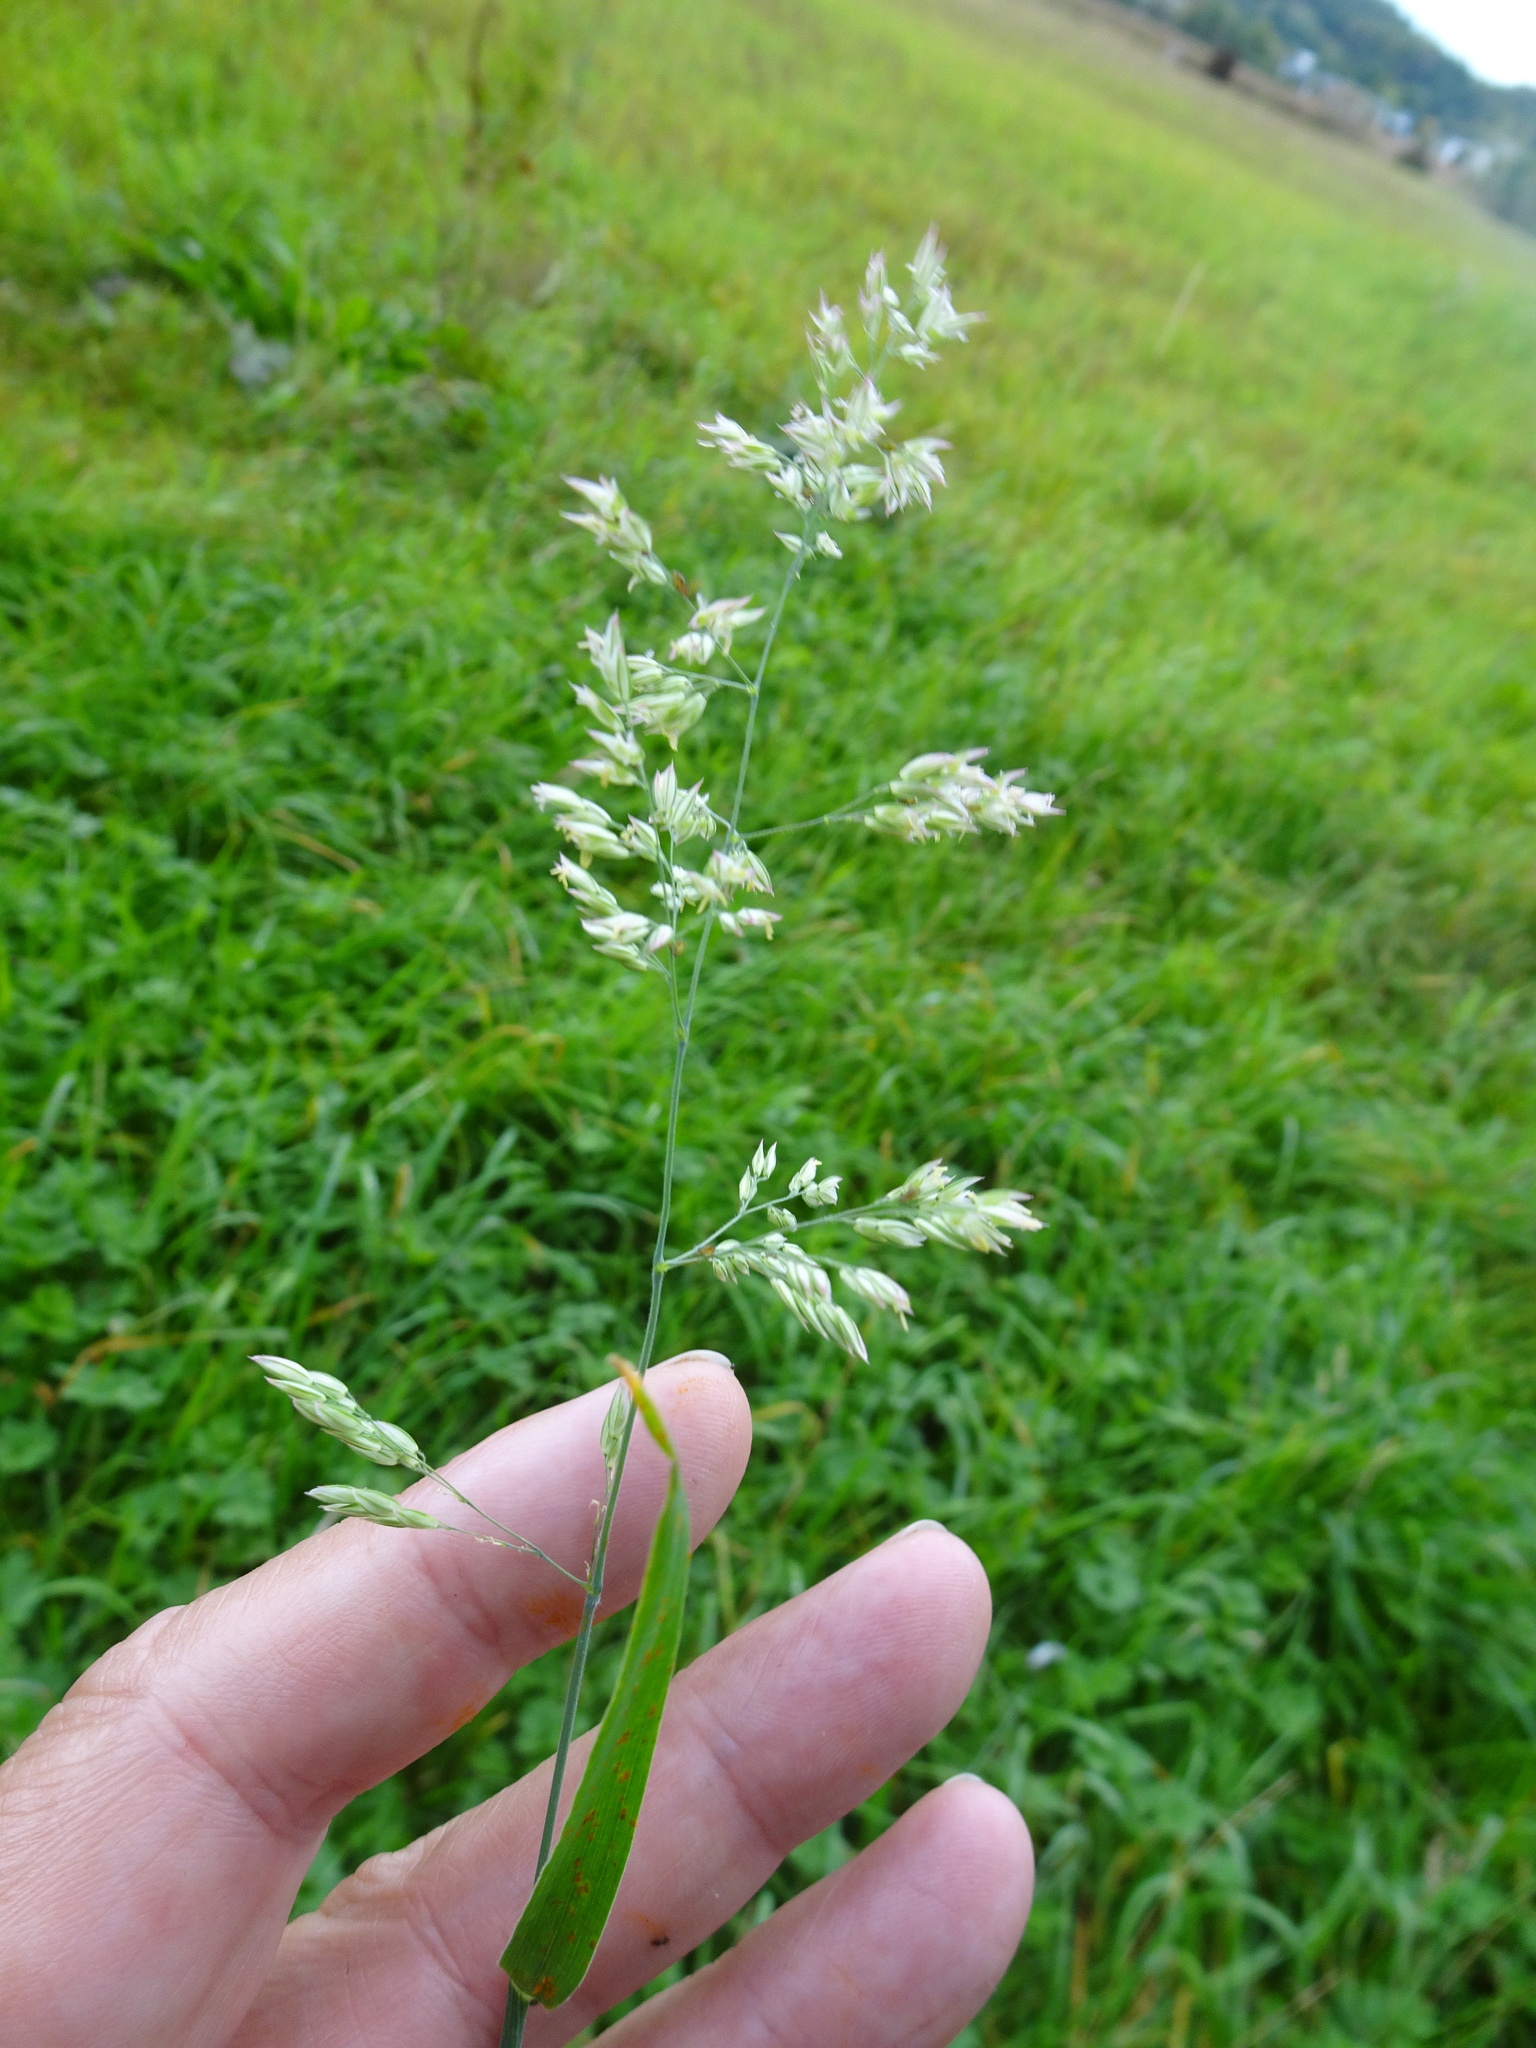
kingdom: Plantae
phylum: Tracheophyta
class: Liliopsida
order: Poales
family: Poaceae
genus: Holcus
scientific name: Holcus lanatus
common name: Yorkshire-fog
